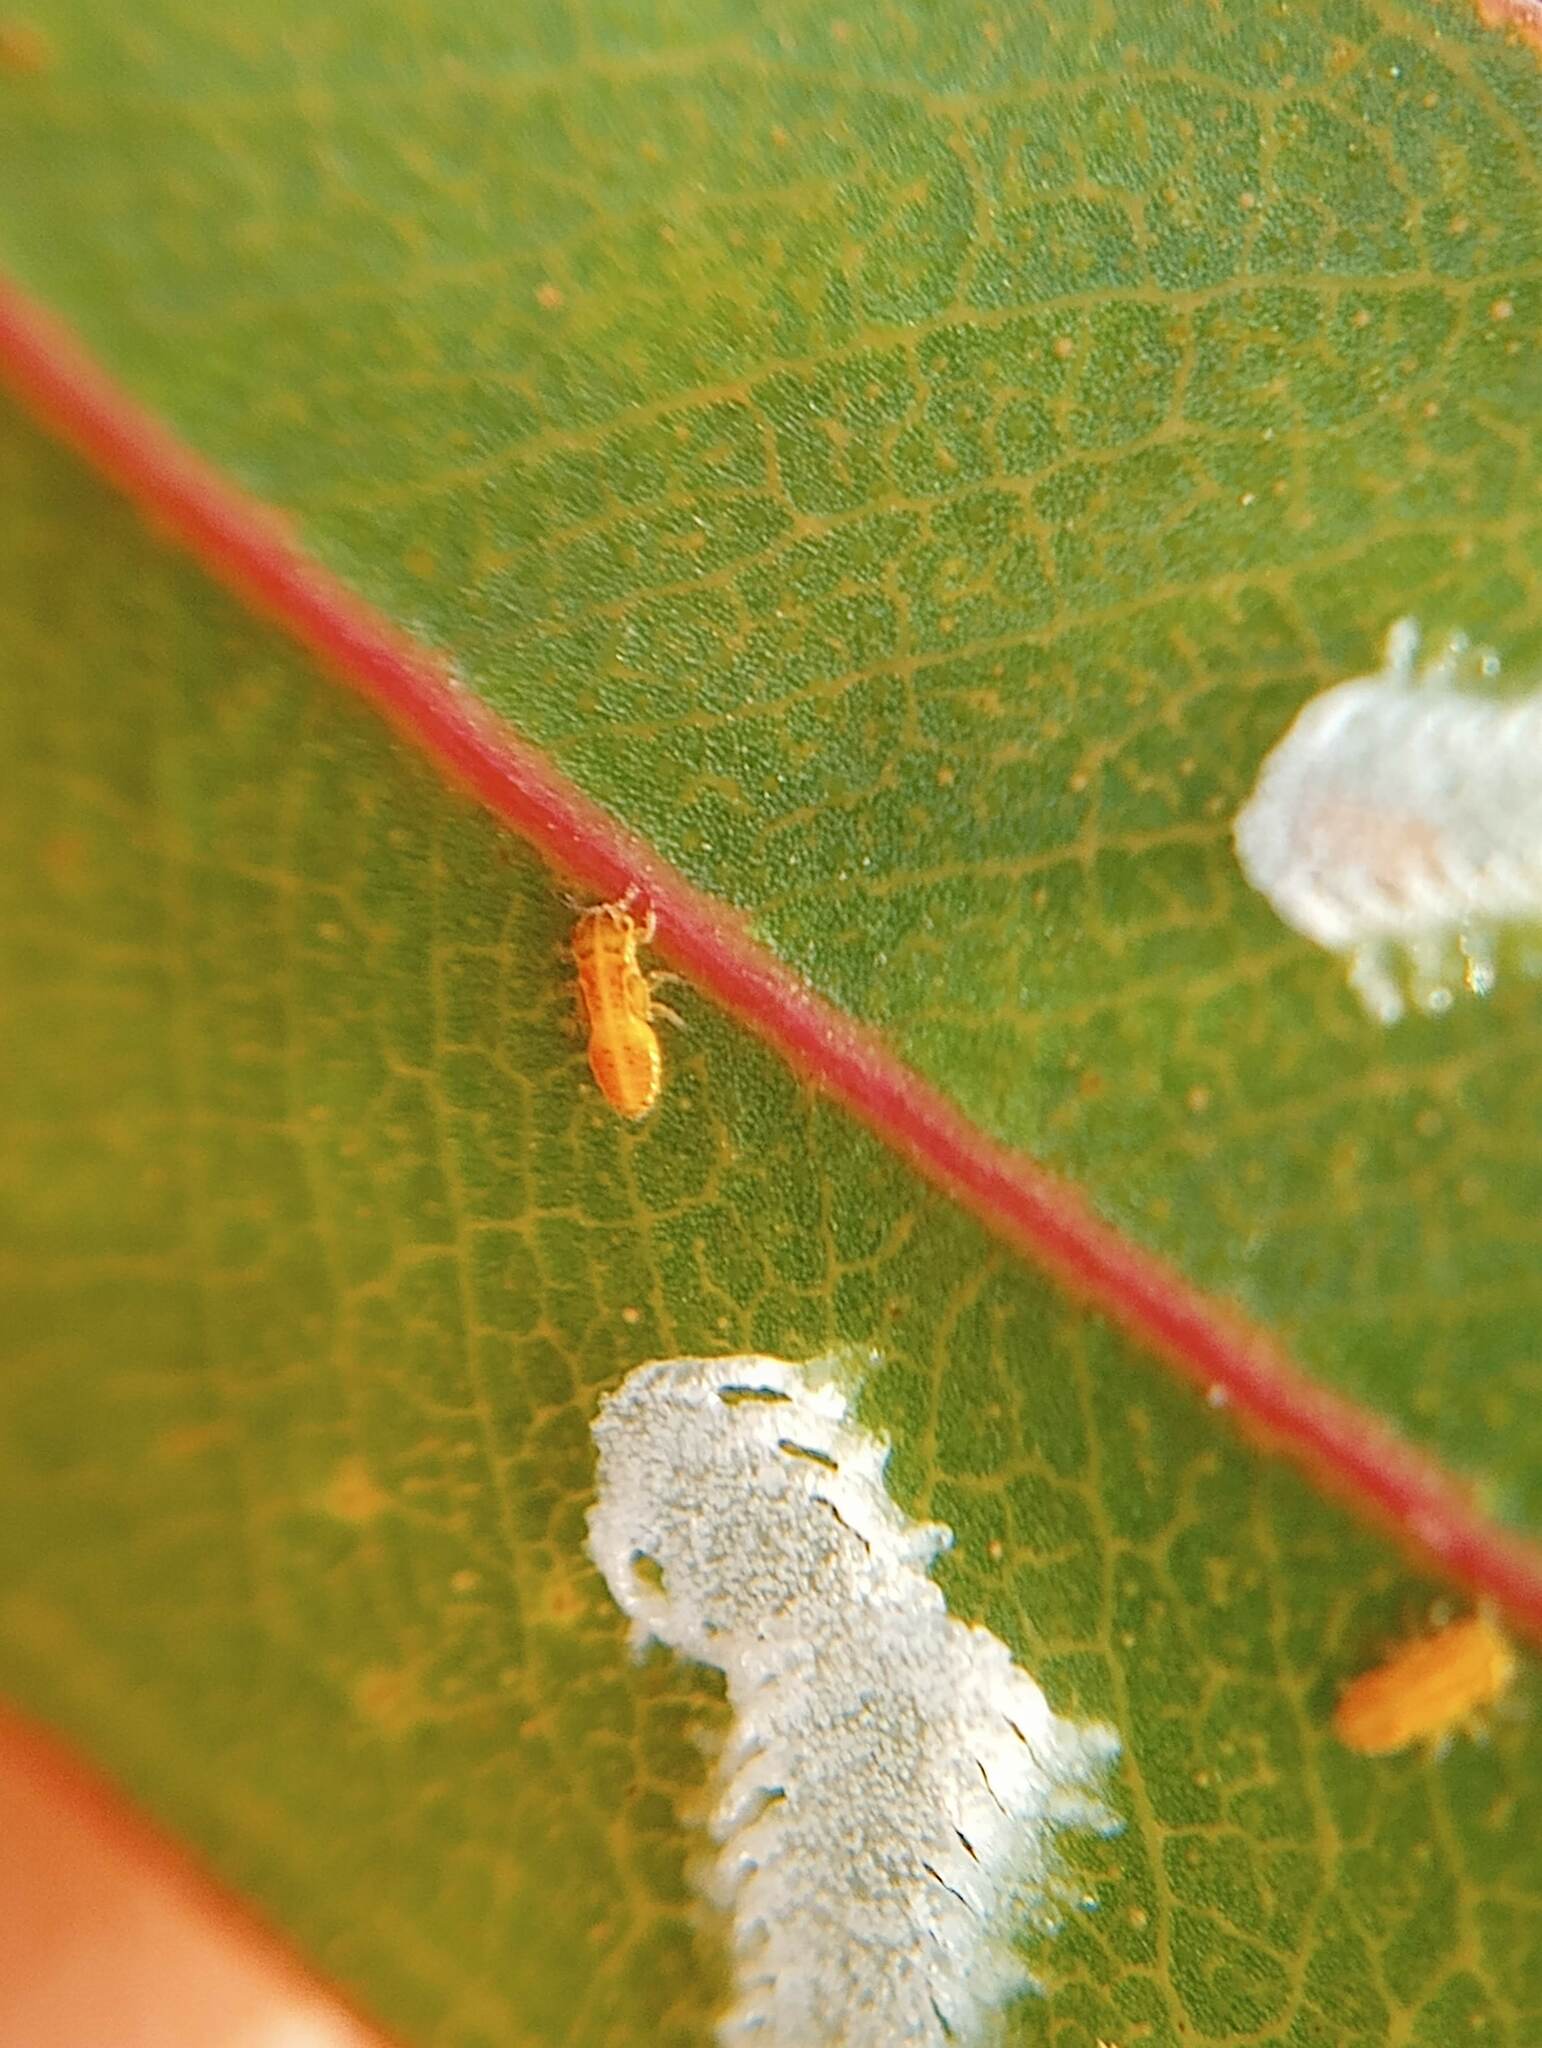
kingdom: Animalia
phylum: Arthropoda
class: Insecta
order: Hemiptera
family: Aphalaridae
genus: Eucalyptolyma
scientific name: Eucalyptolyma maideni
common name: Spotted gum lerp psyllid
